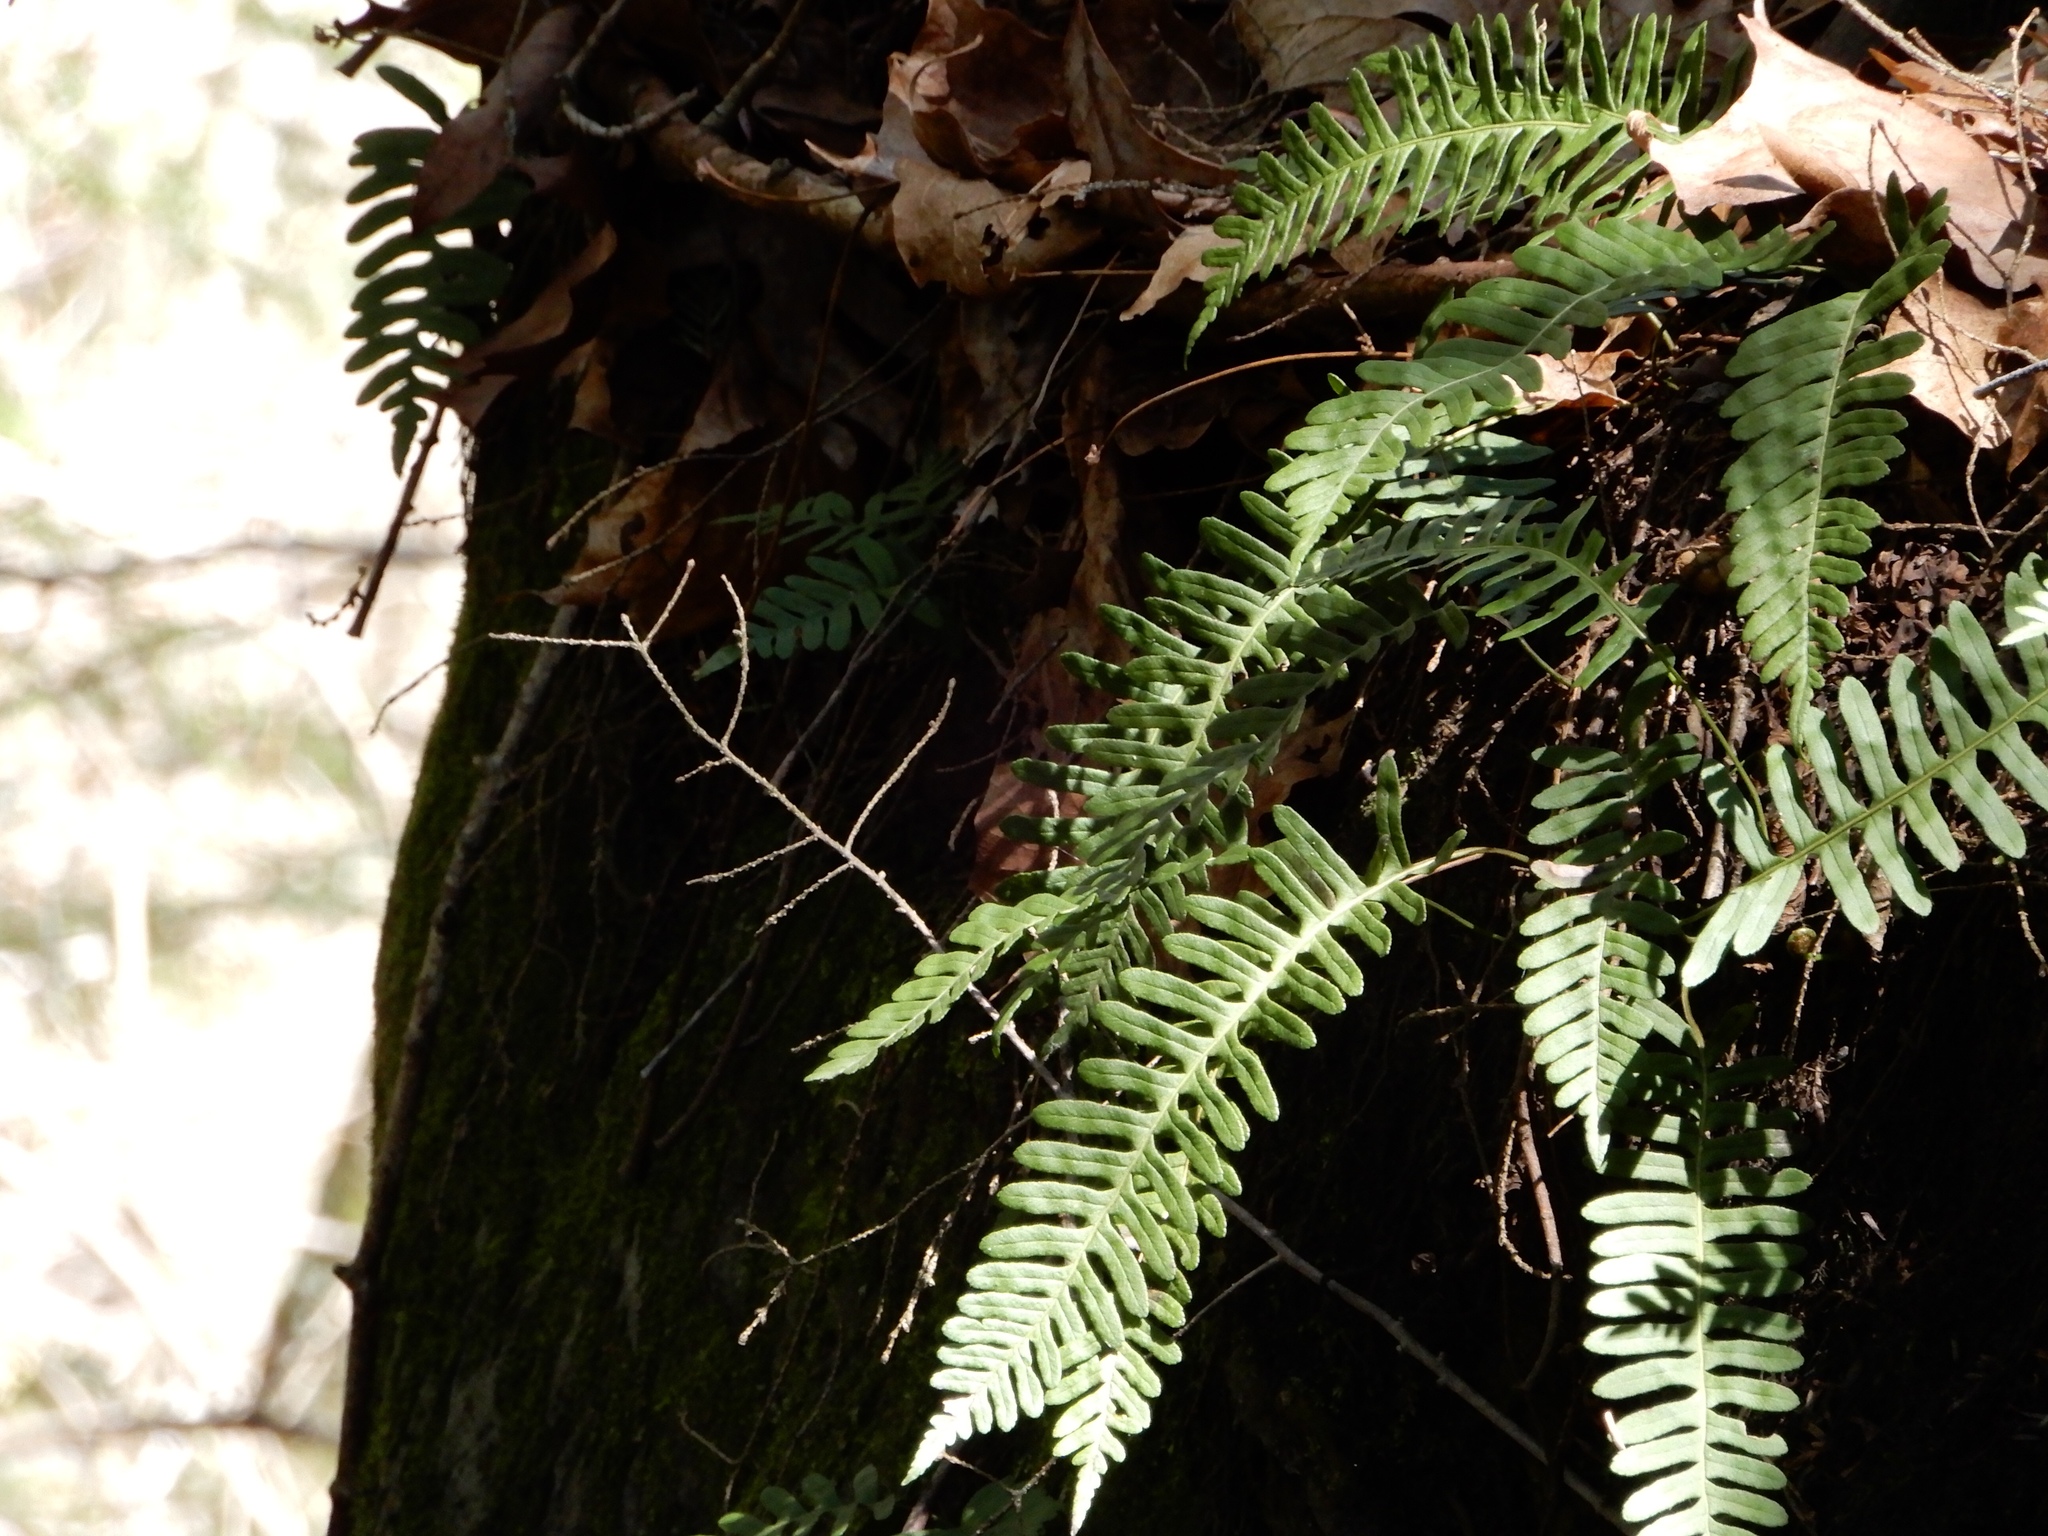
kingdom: Plantae
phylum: Tracheophyta
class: Polypodiopsida
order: Polypodiales
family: Polypodiaceae
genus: Polypodium
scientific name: Polypodium virginianum
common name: American wall fern
